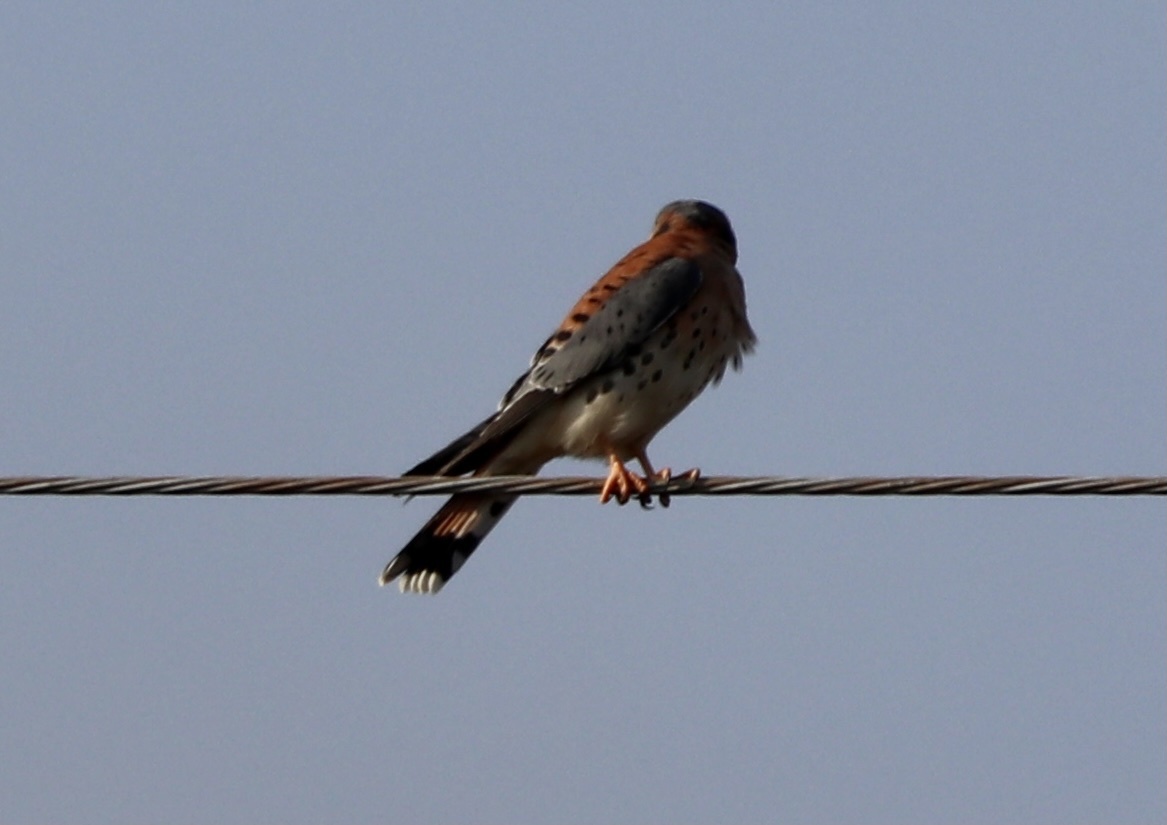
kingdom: Animalia
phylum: Chordata
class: Aves
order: Falconiformes
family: Falconidae
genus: Falco
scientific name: Falco sparverius
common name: American kestrel
